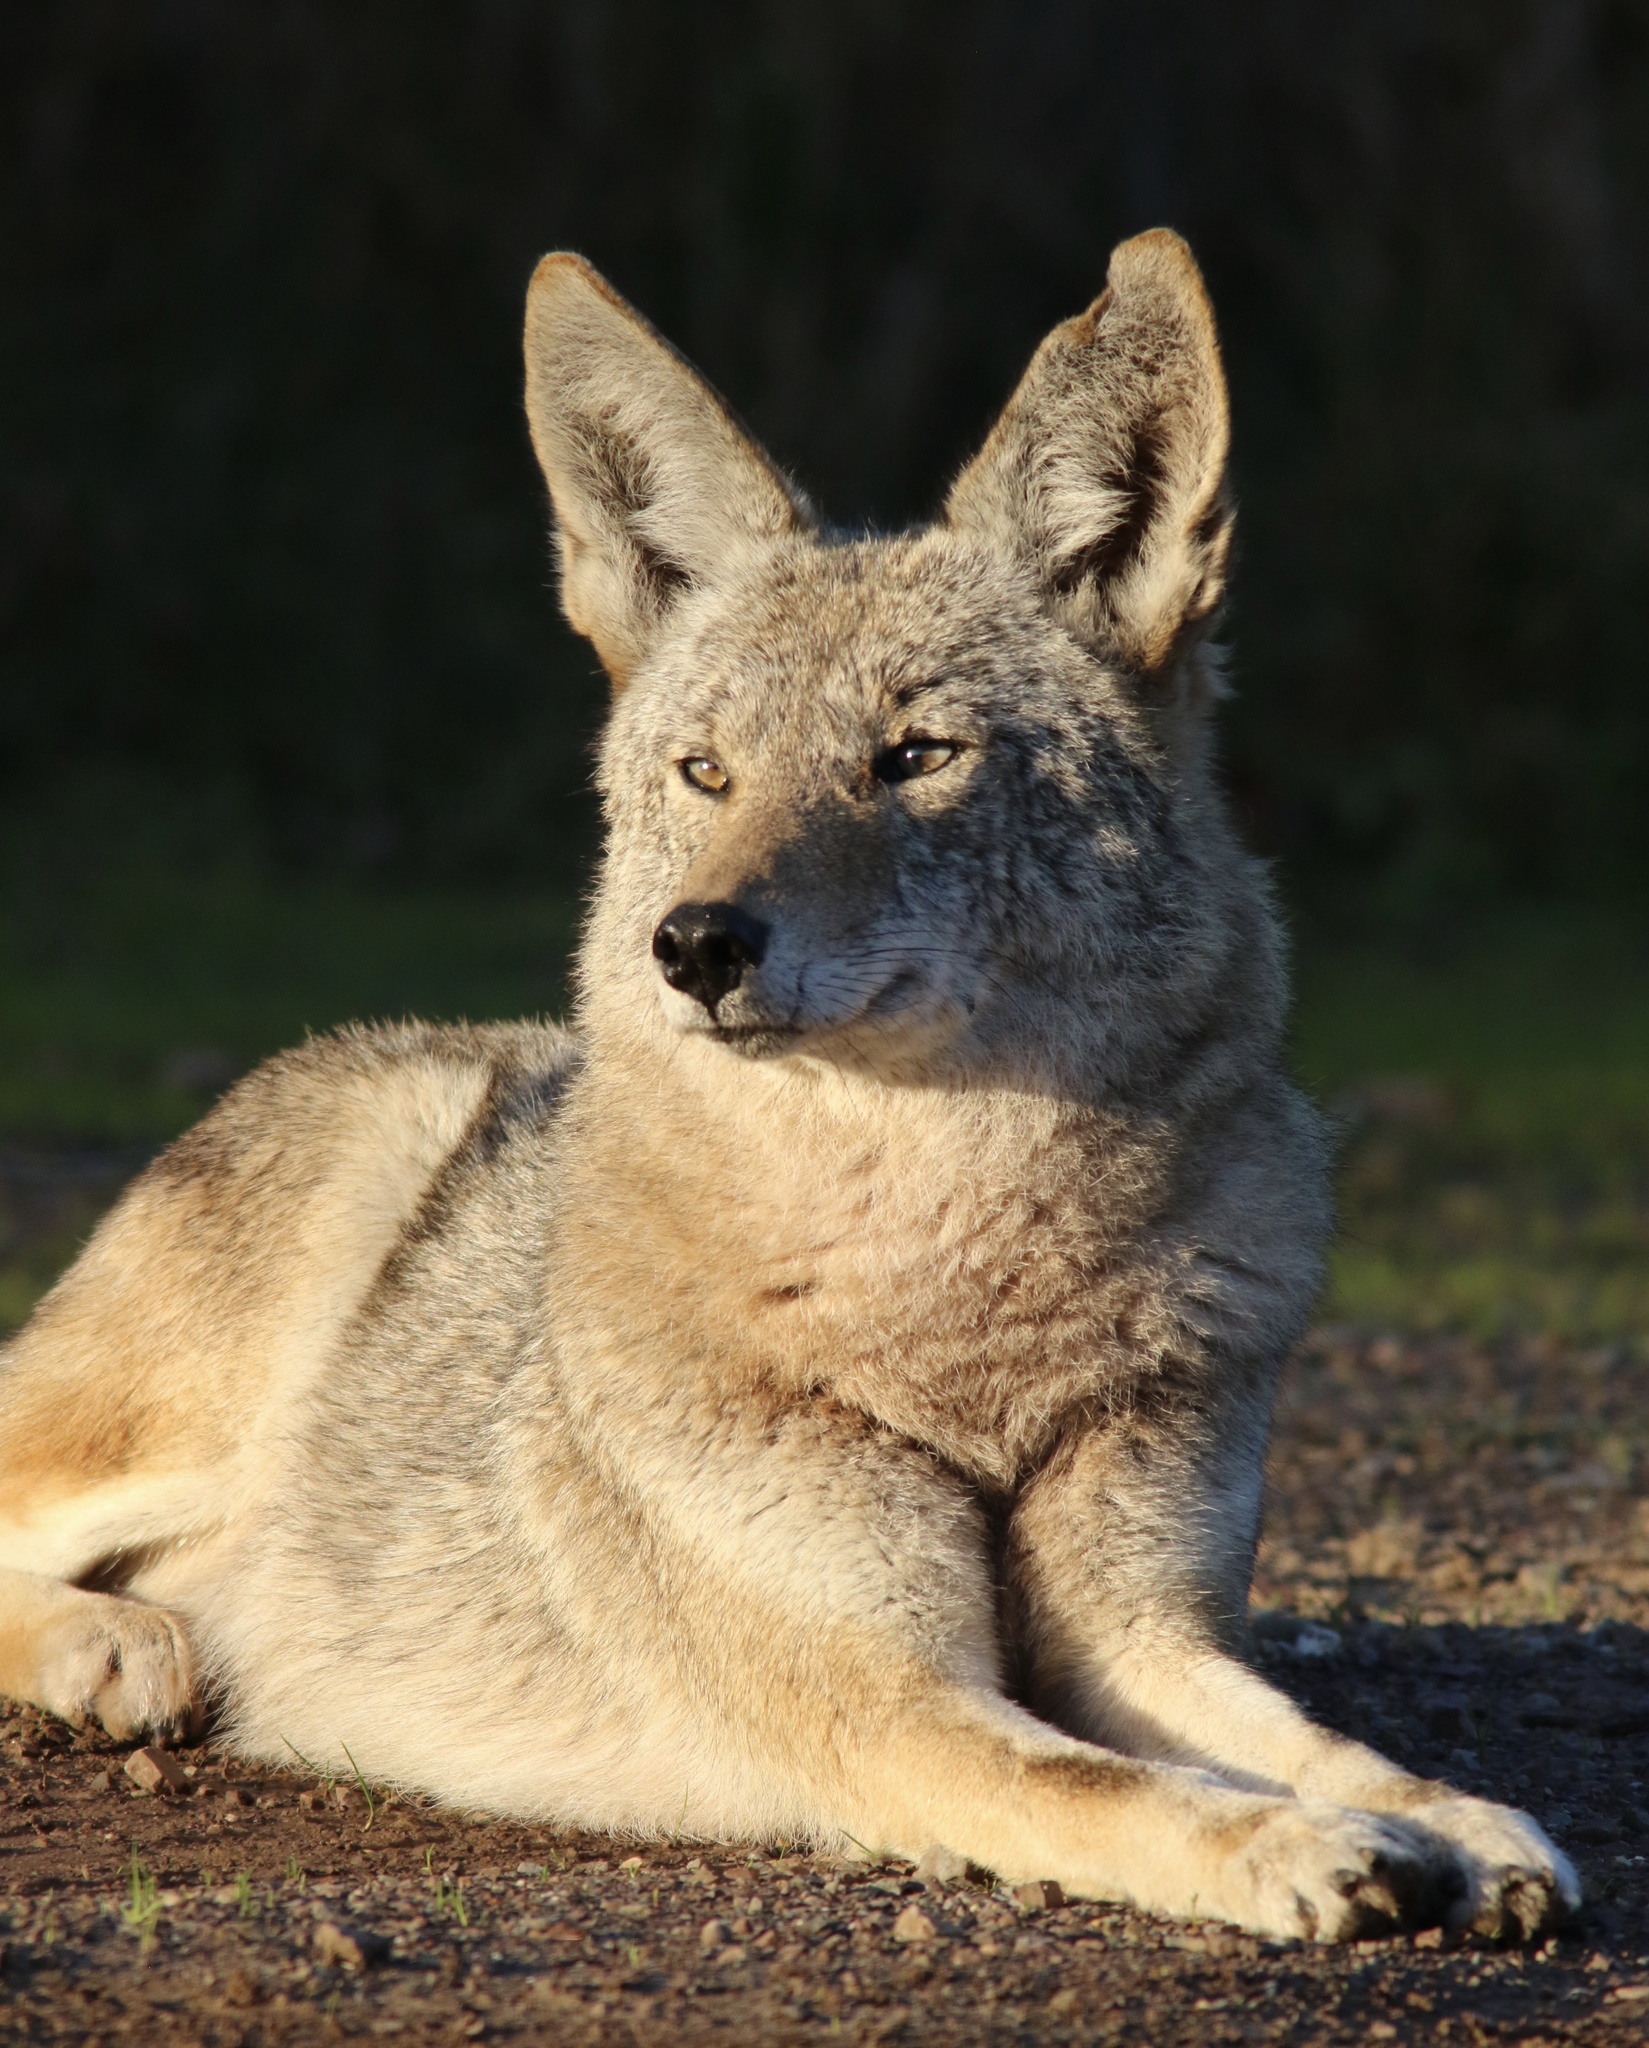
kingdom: Animalia
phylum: Chordata
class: Mammalia
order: Carnivora
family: Canidae
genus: Canis
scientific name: Canis latrans
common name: Coyote
